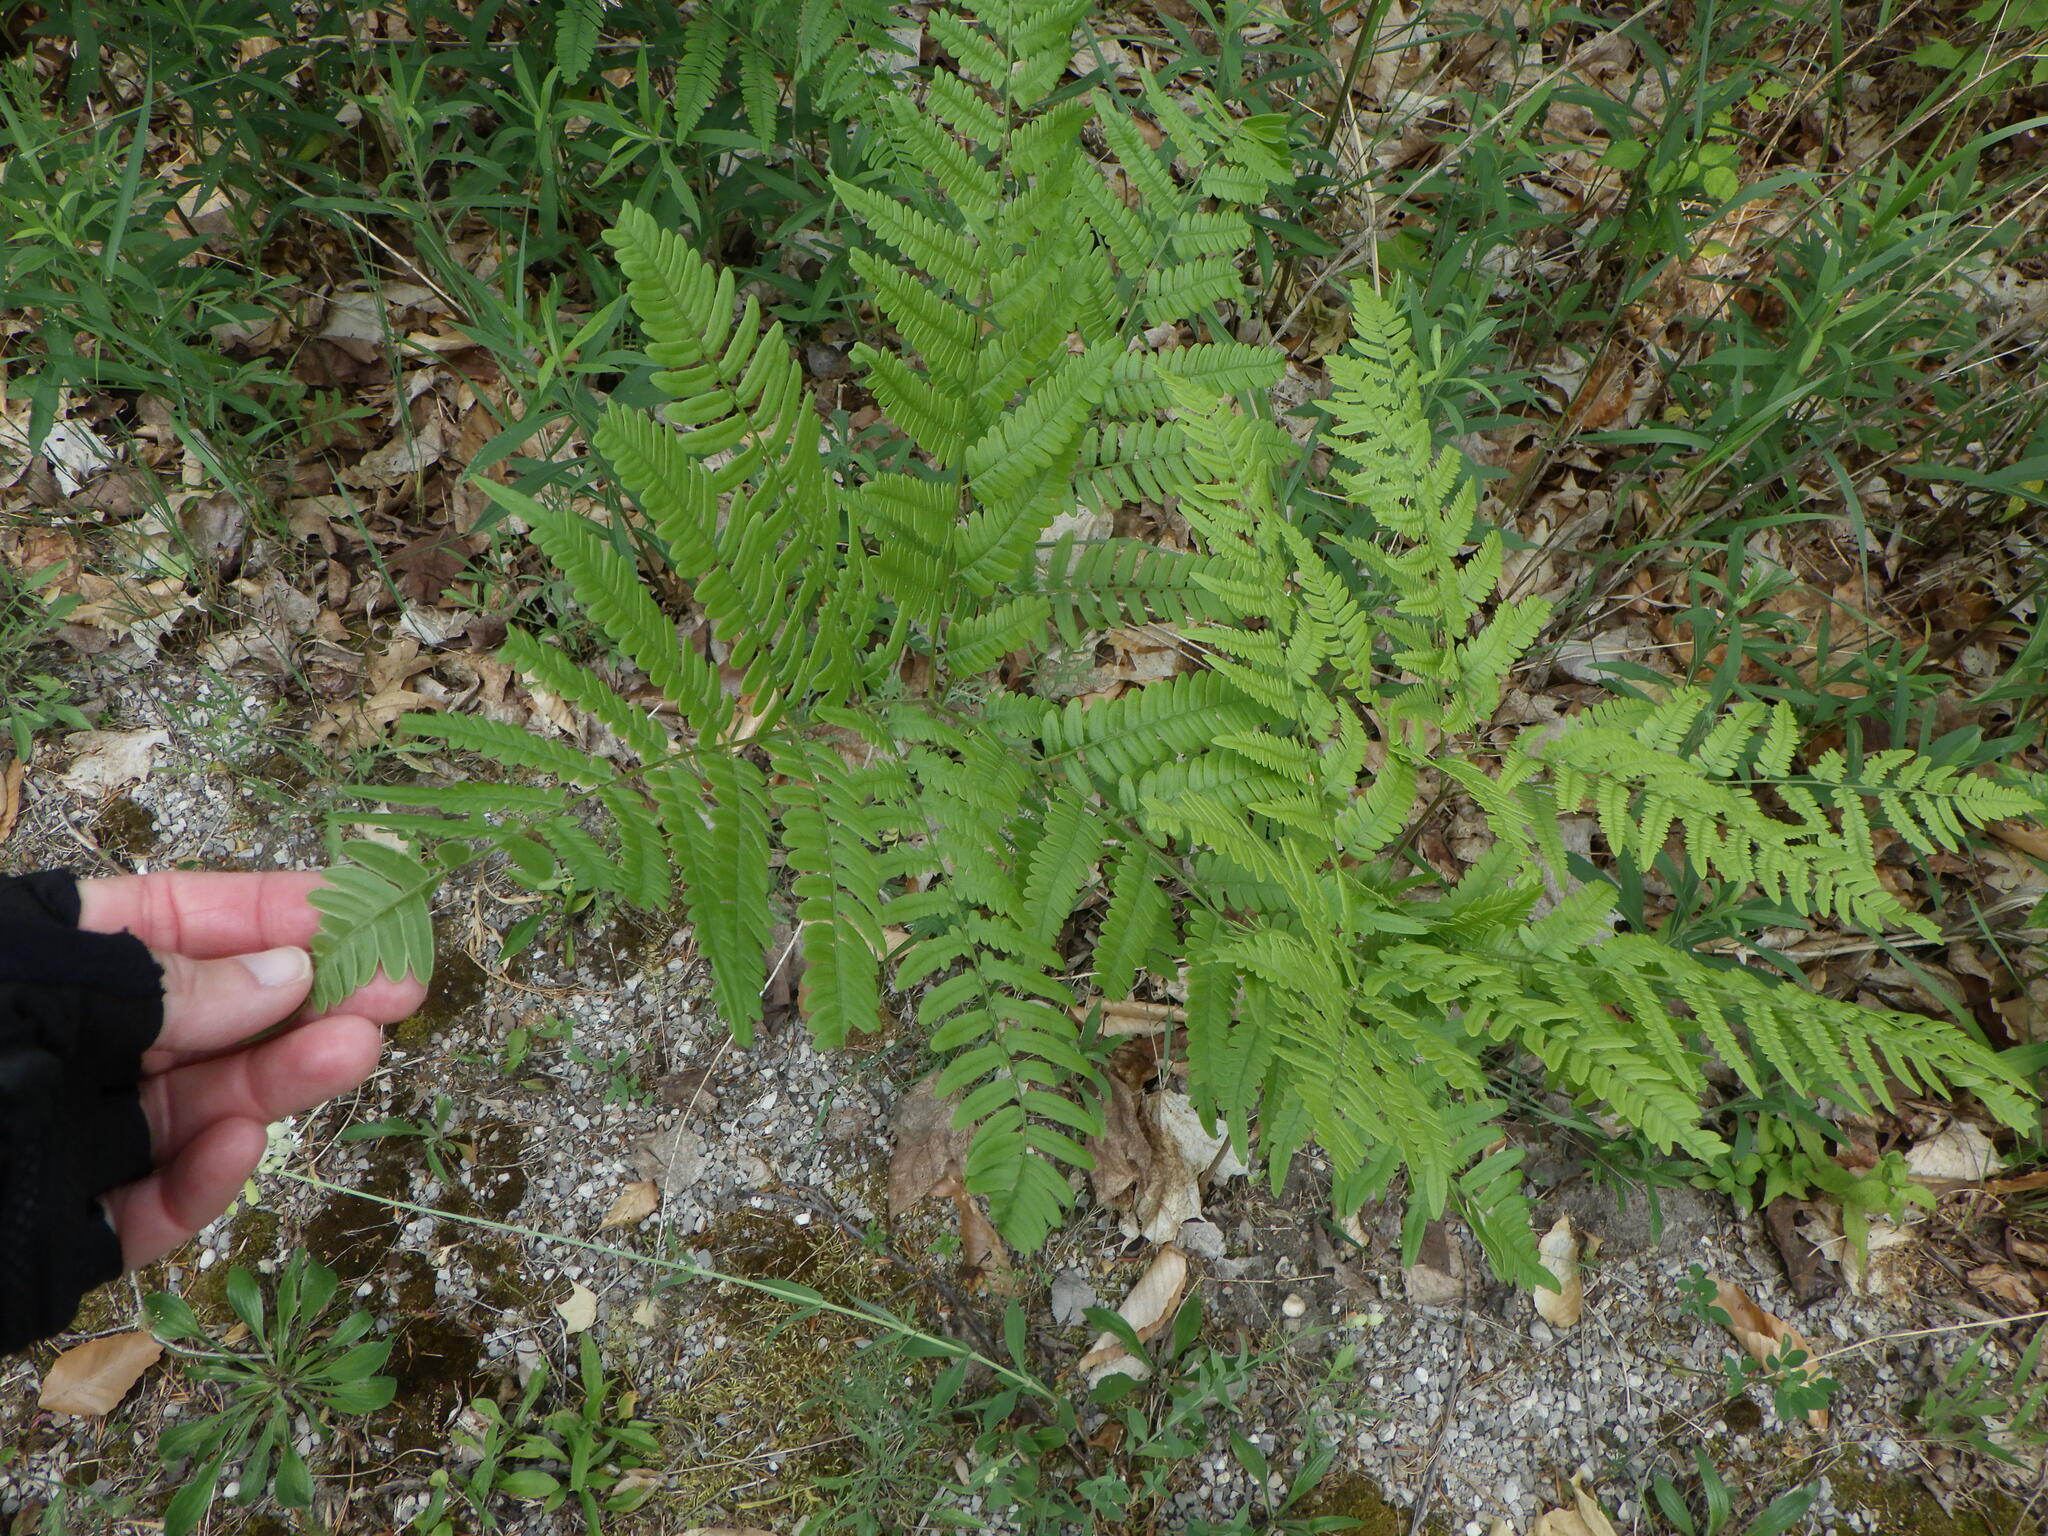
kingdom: Plantae
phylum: Tracheophyta
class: Polypodiopsida
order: Polypodiales
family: Dennstaedtiaceae
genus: Pteridium
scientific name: Pteridium aquilinum
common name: Bracken
